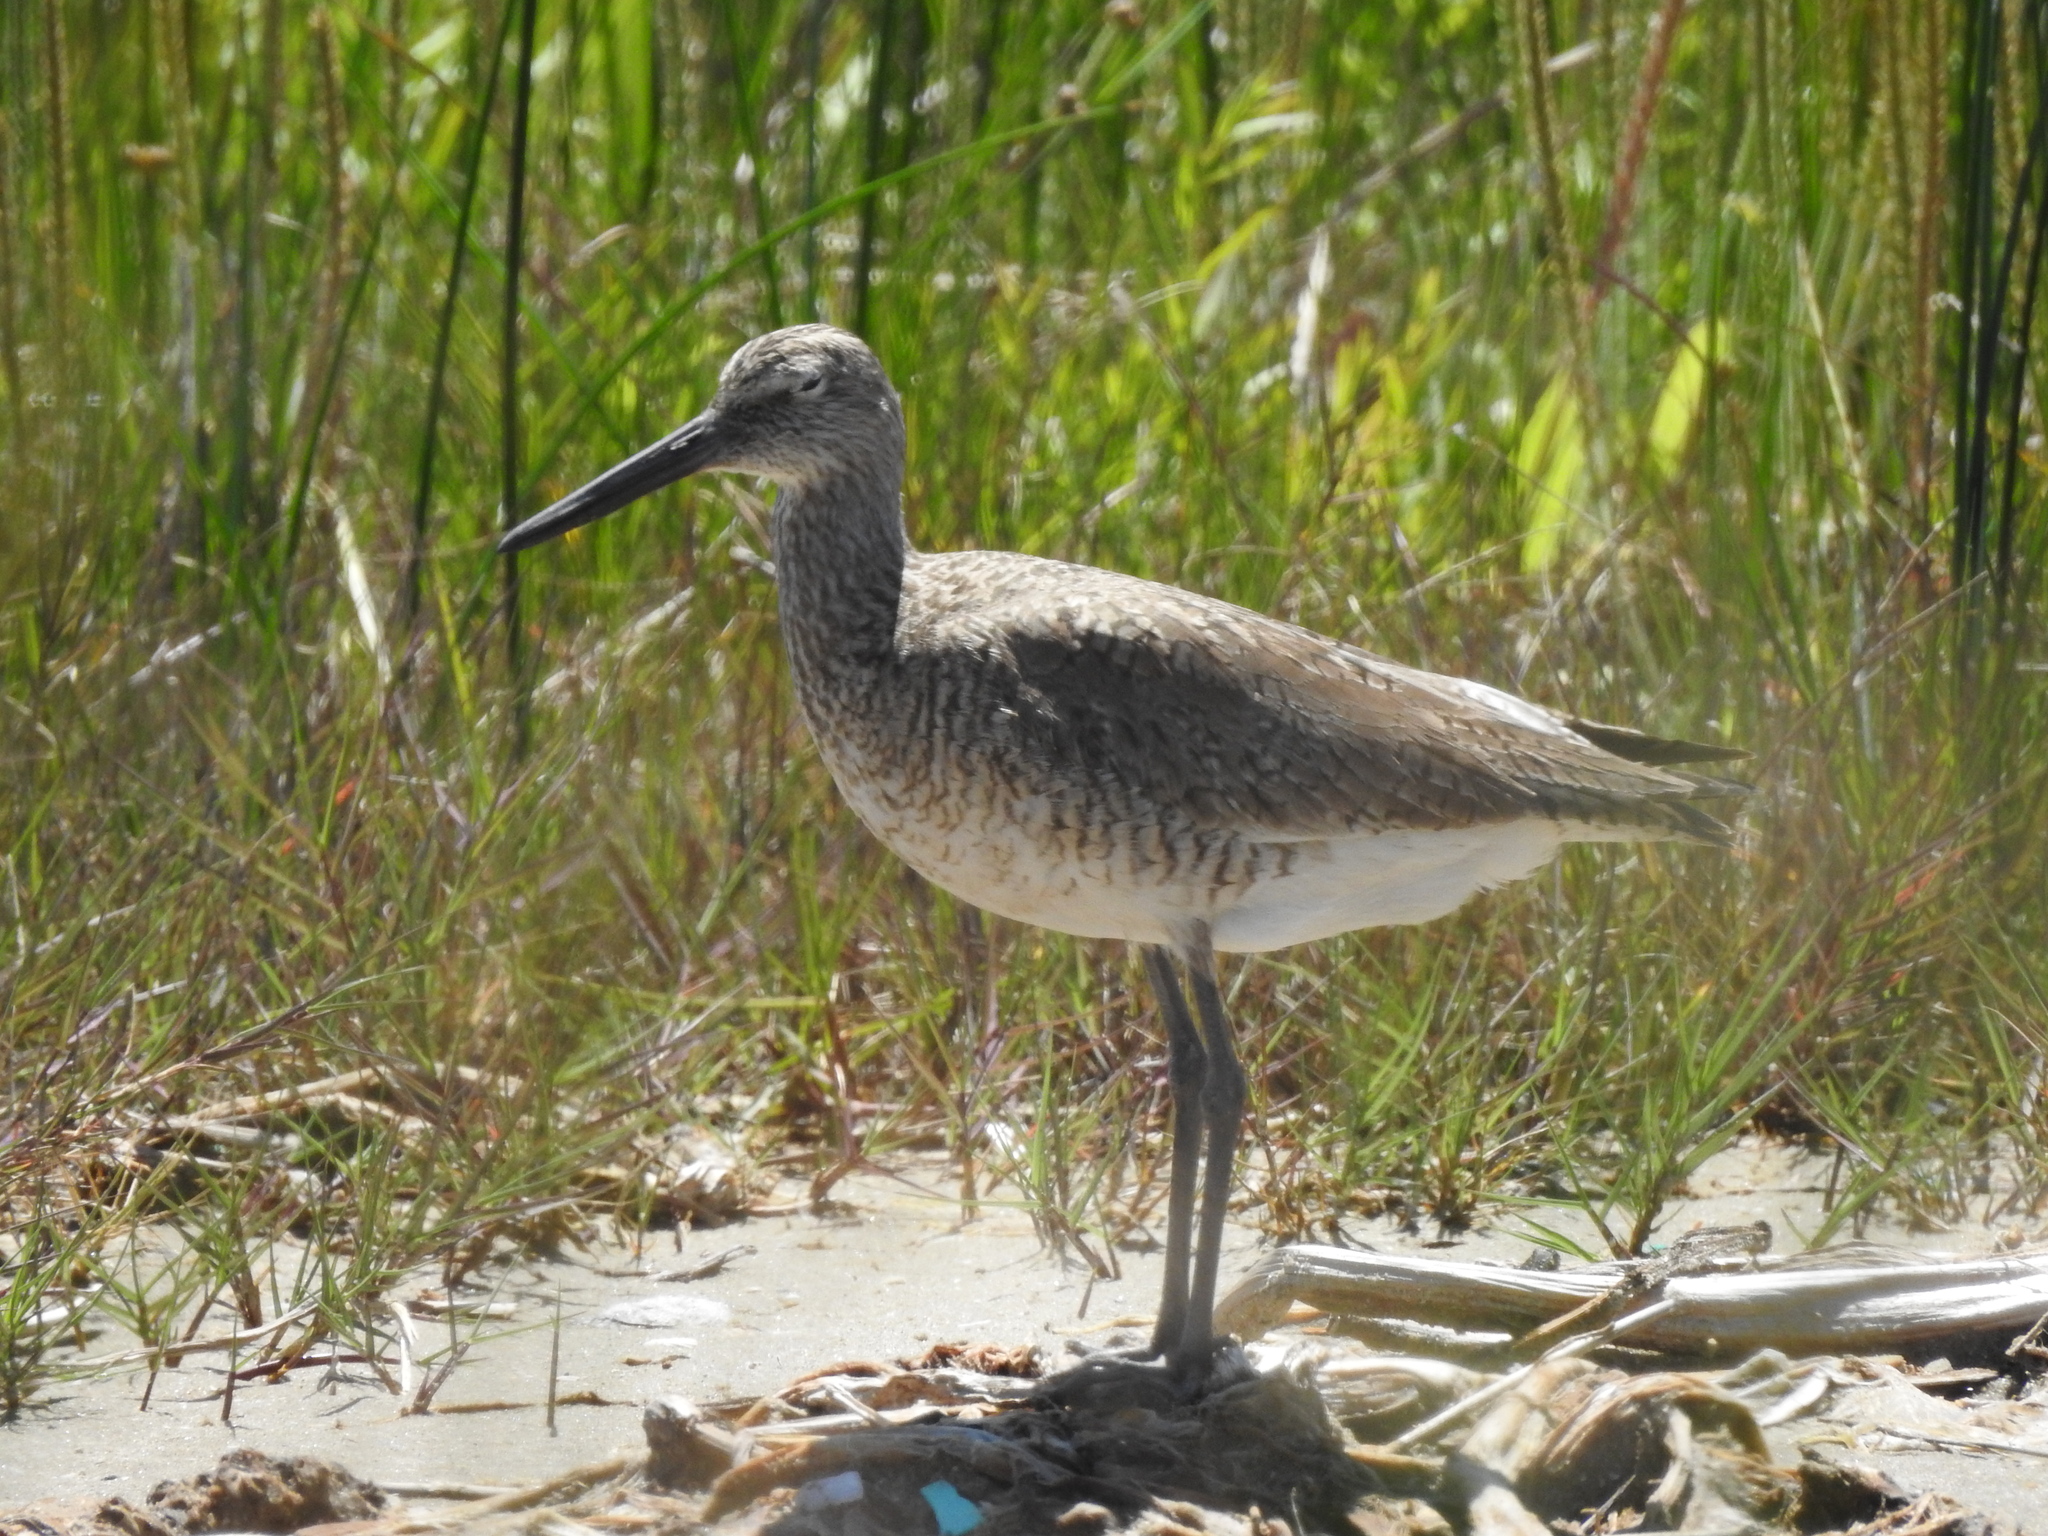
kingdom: Animalia
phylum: Chordata
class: Aves
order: Charadriiformes
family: Scolopacidae
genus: Tringa
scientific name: Tringa semipalmata
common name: Willet
